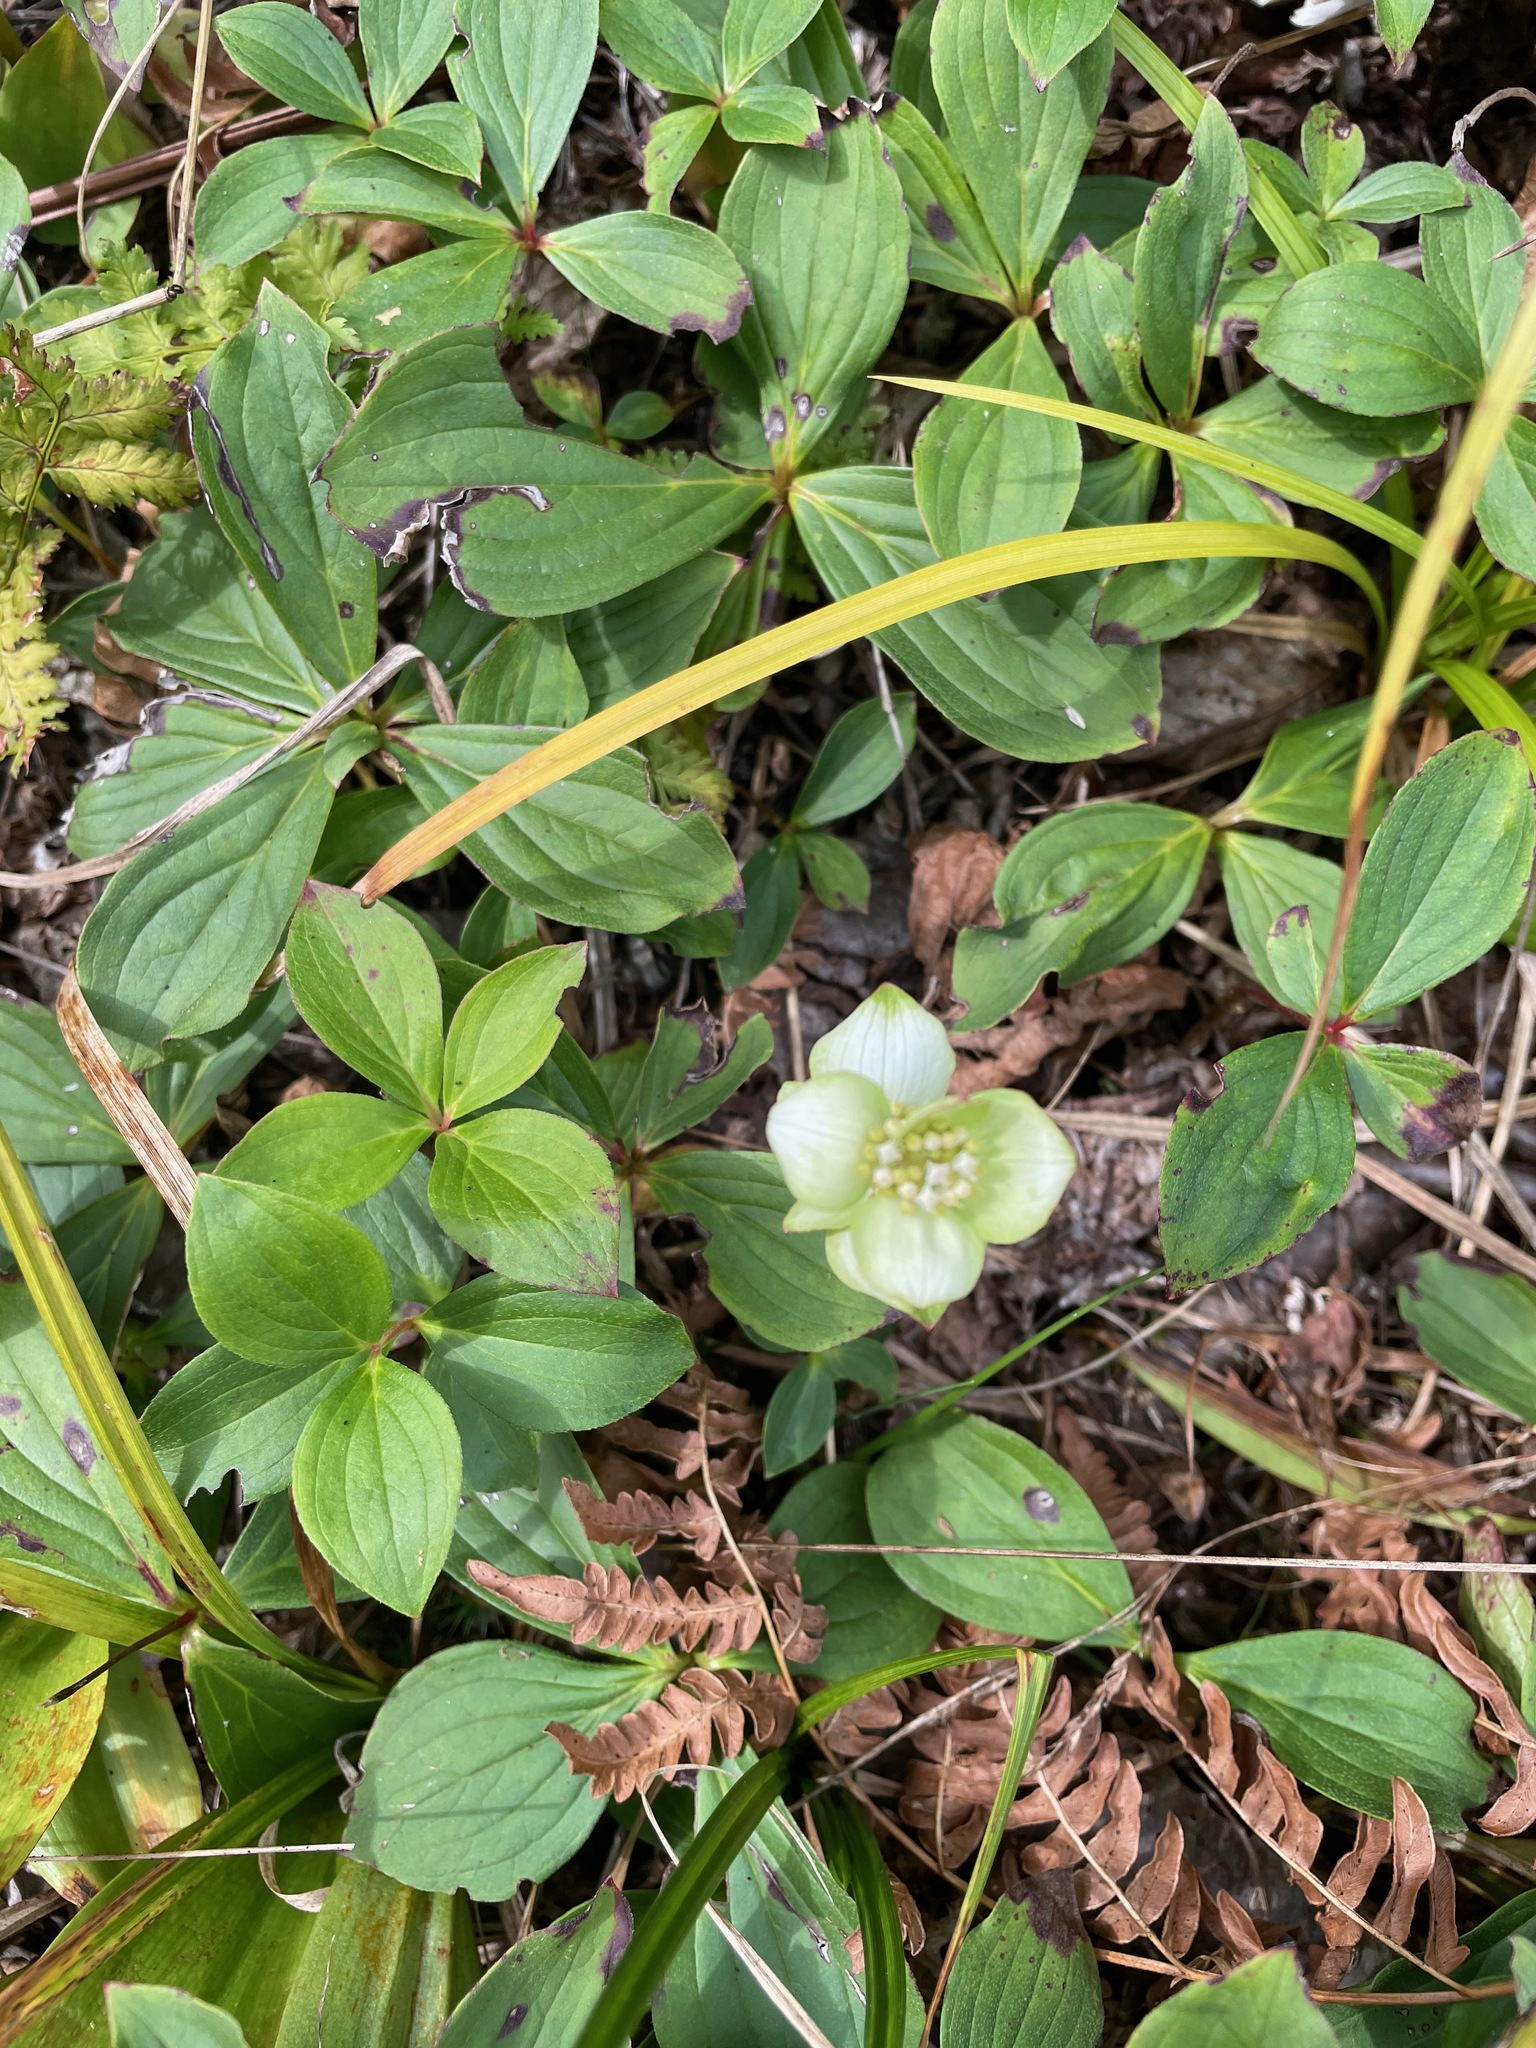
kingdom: Plantae
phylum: Tracheophyta
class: Magnoliopsida
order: Cornales
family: Cornaceae
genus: Cornus
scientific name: Cornus canadensis
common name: Creeping dogwood
